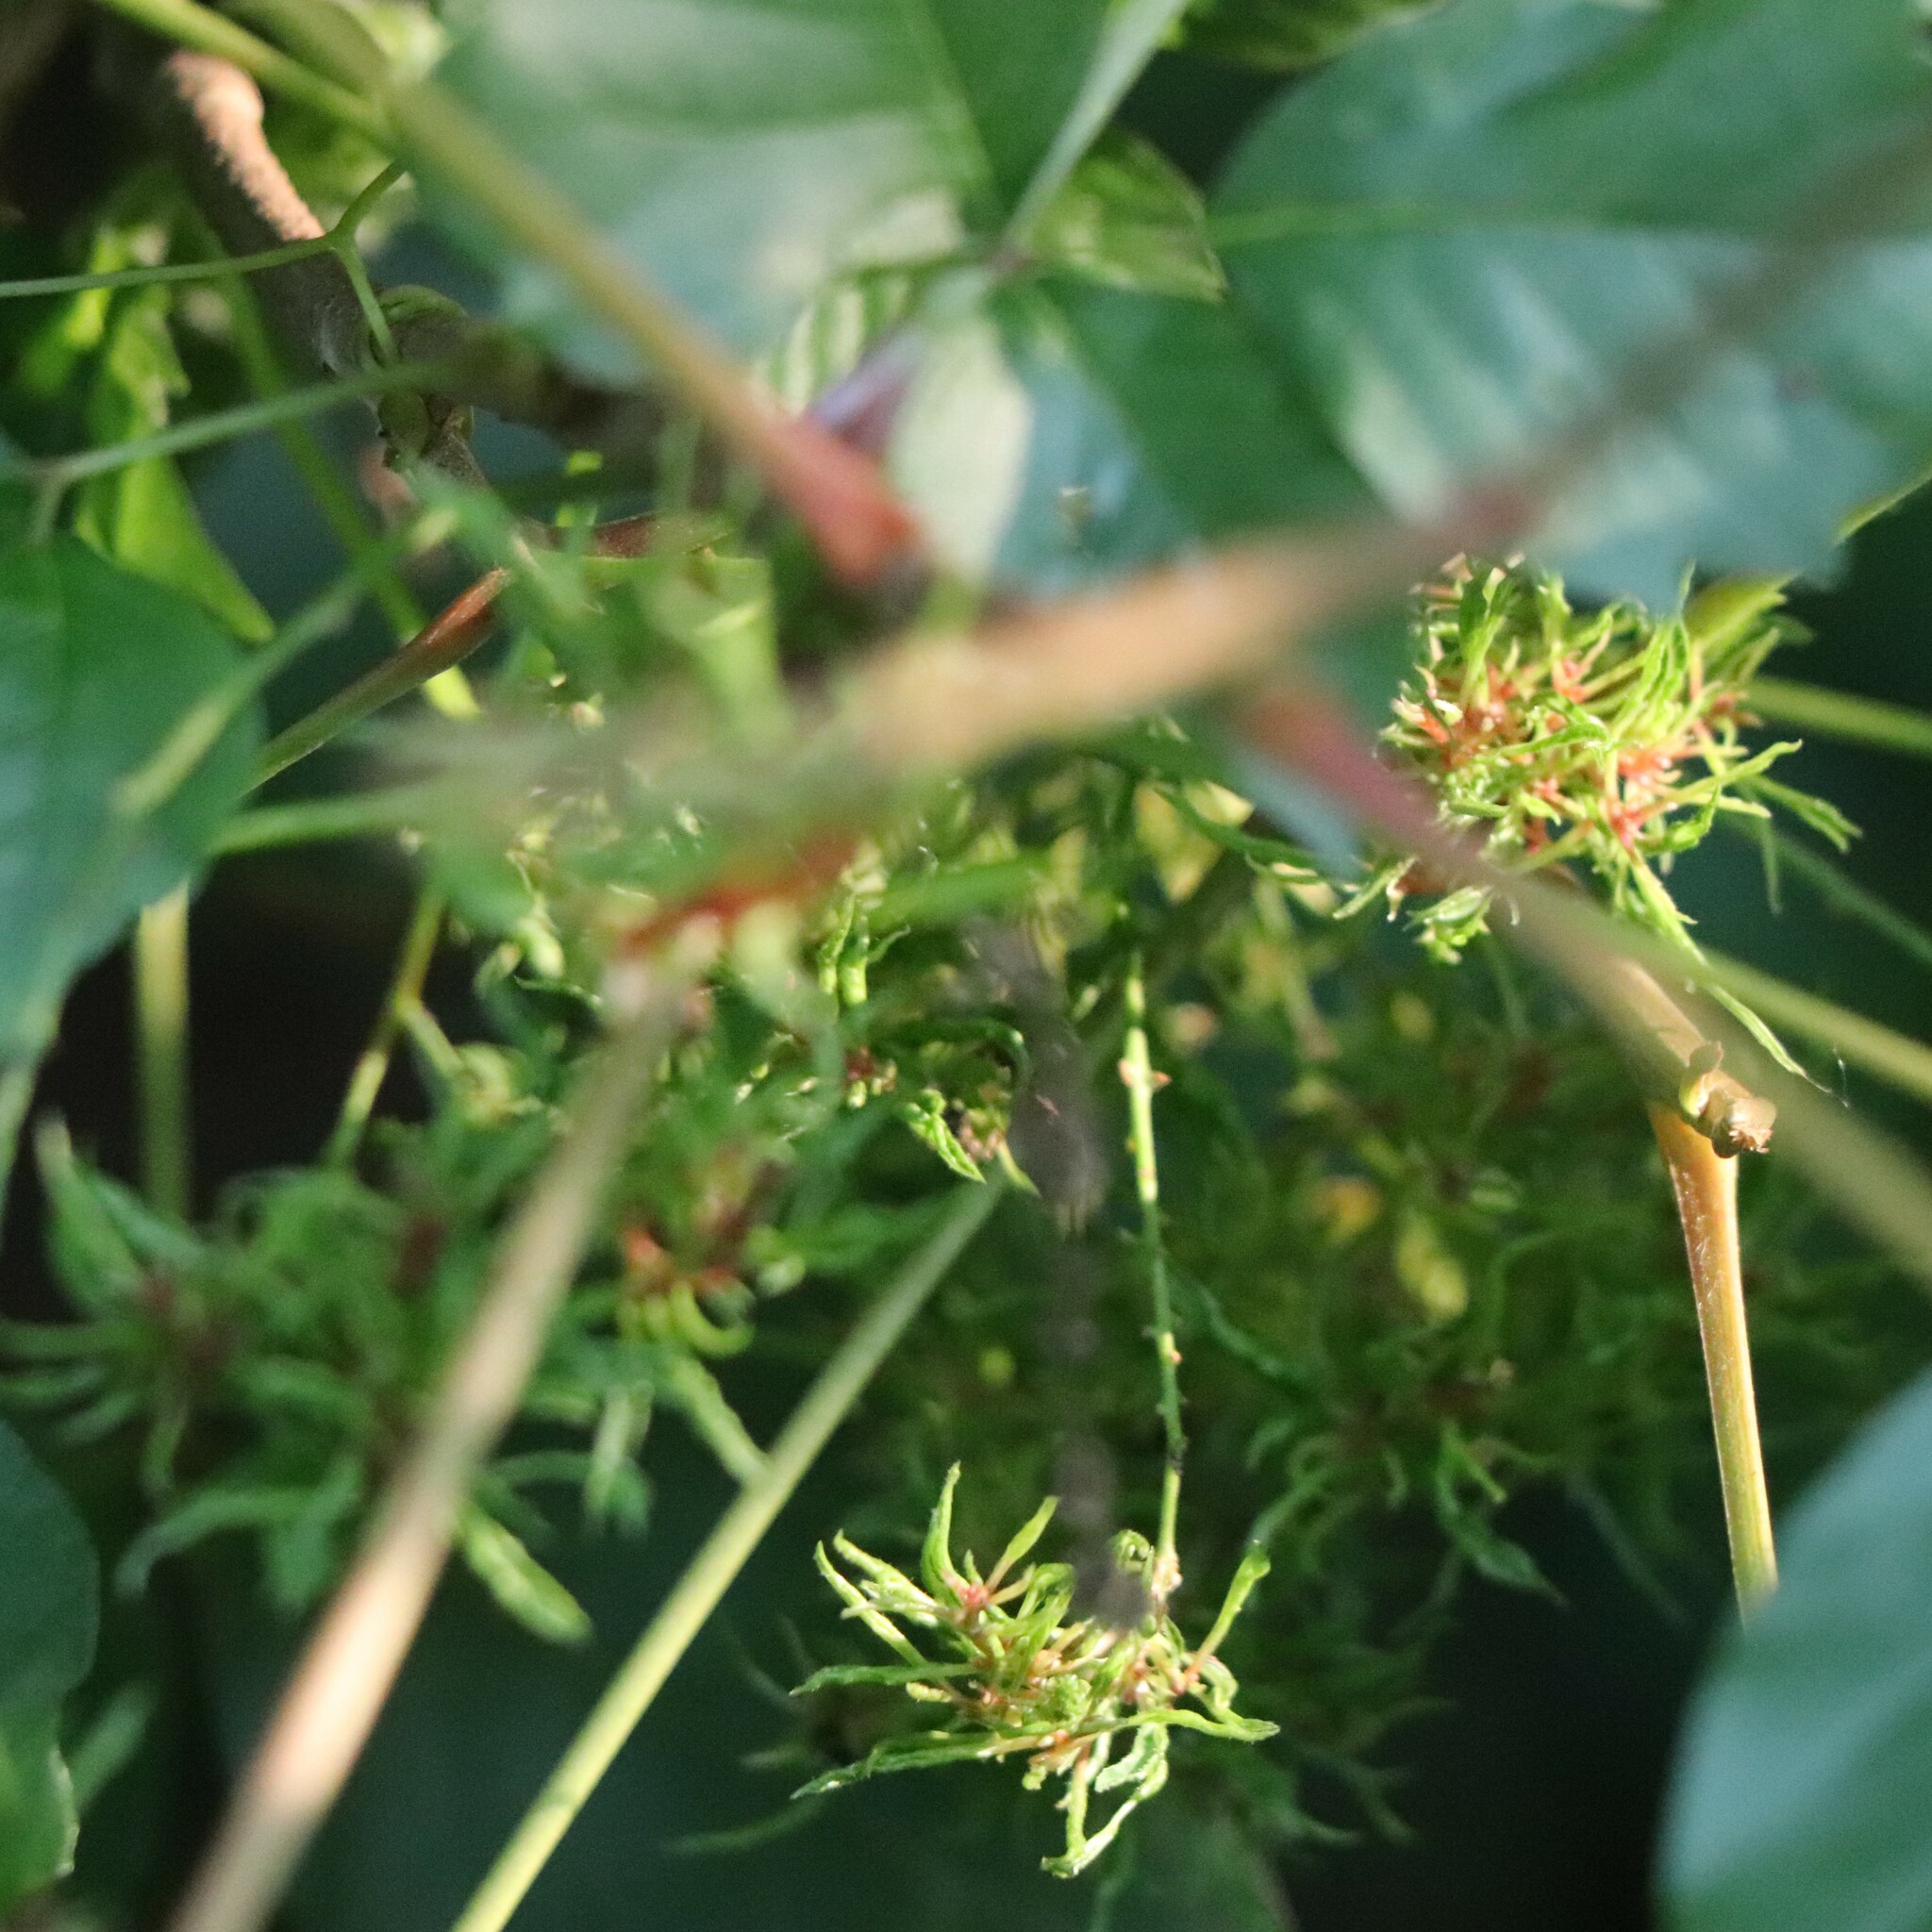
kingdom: Animalia
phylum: Arthropoda
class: Arachnida
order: Trombidiformes
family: Eriophyidae
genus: Eriophyes
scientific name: Eriophyes
